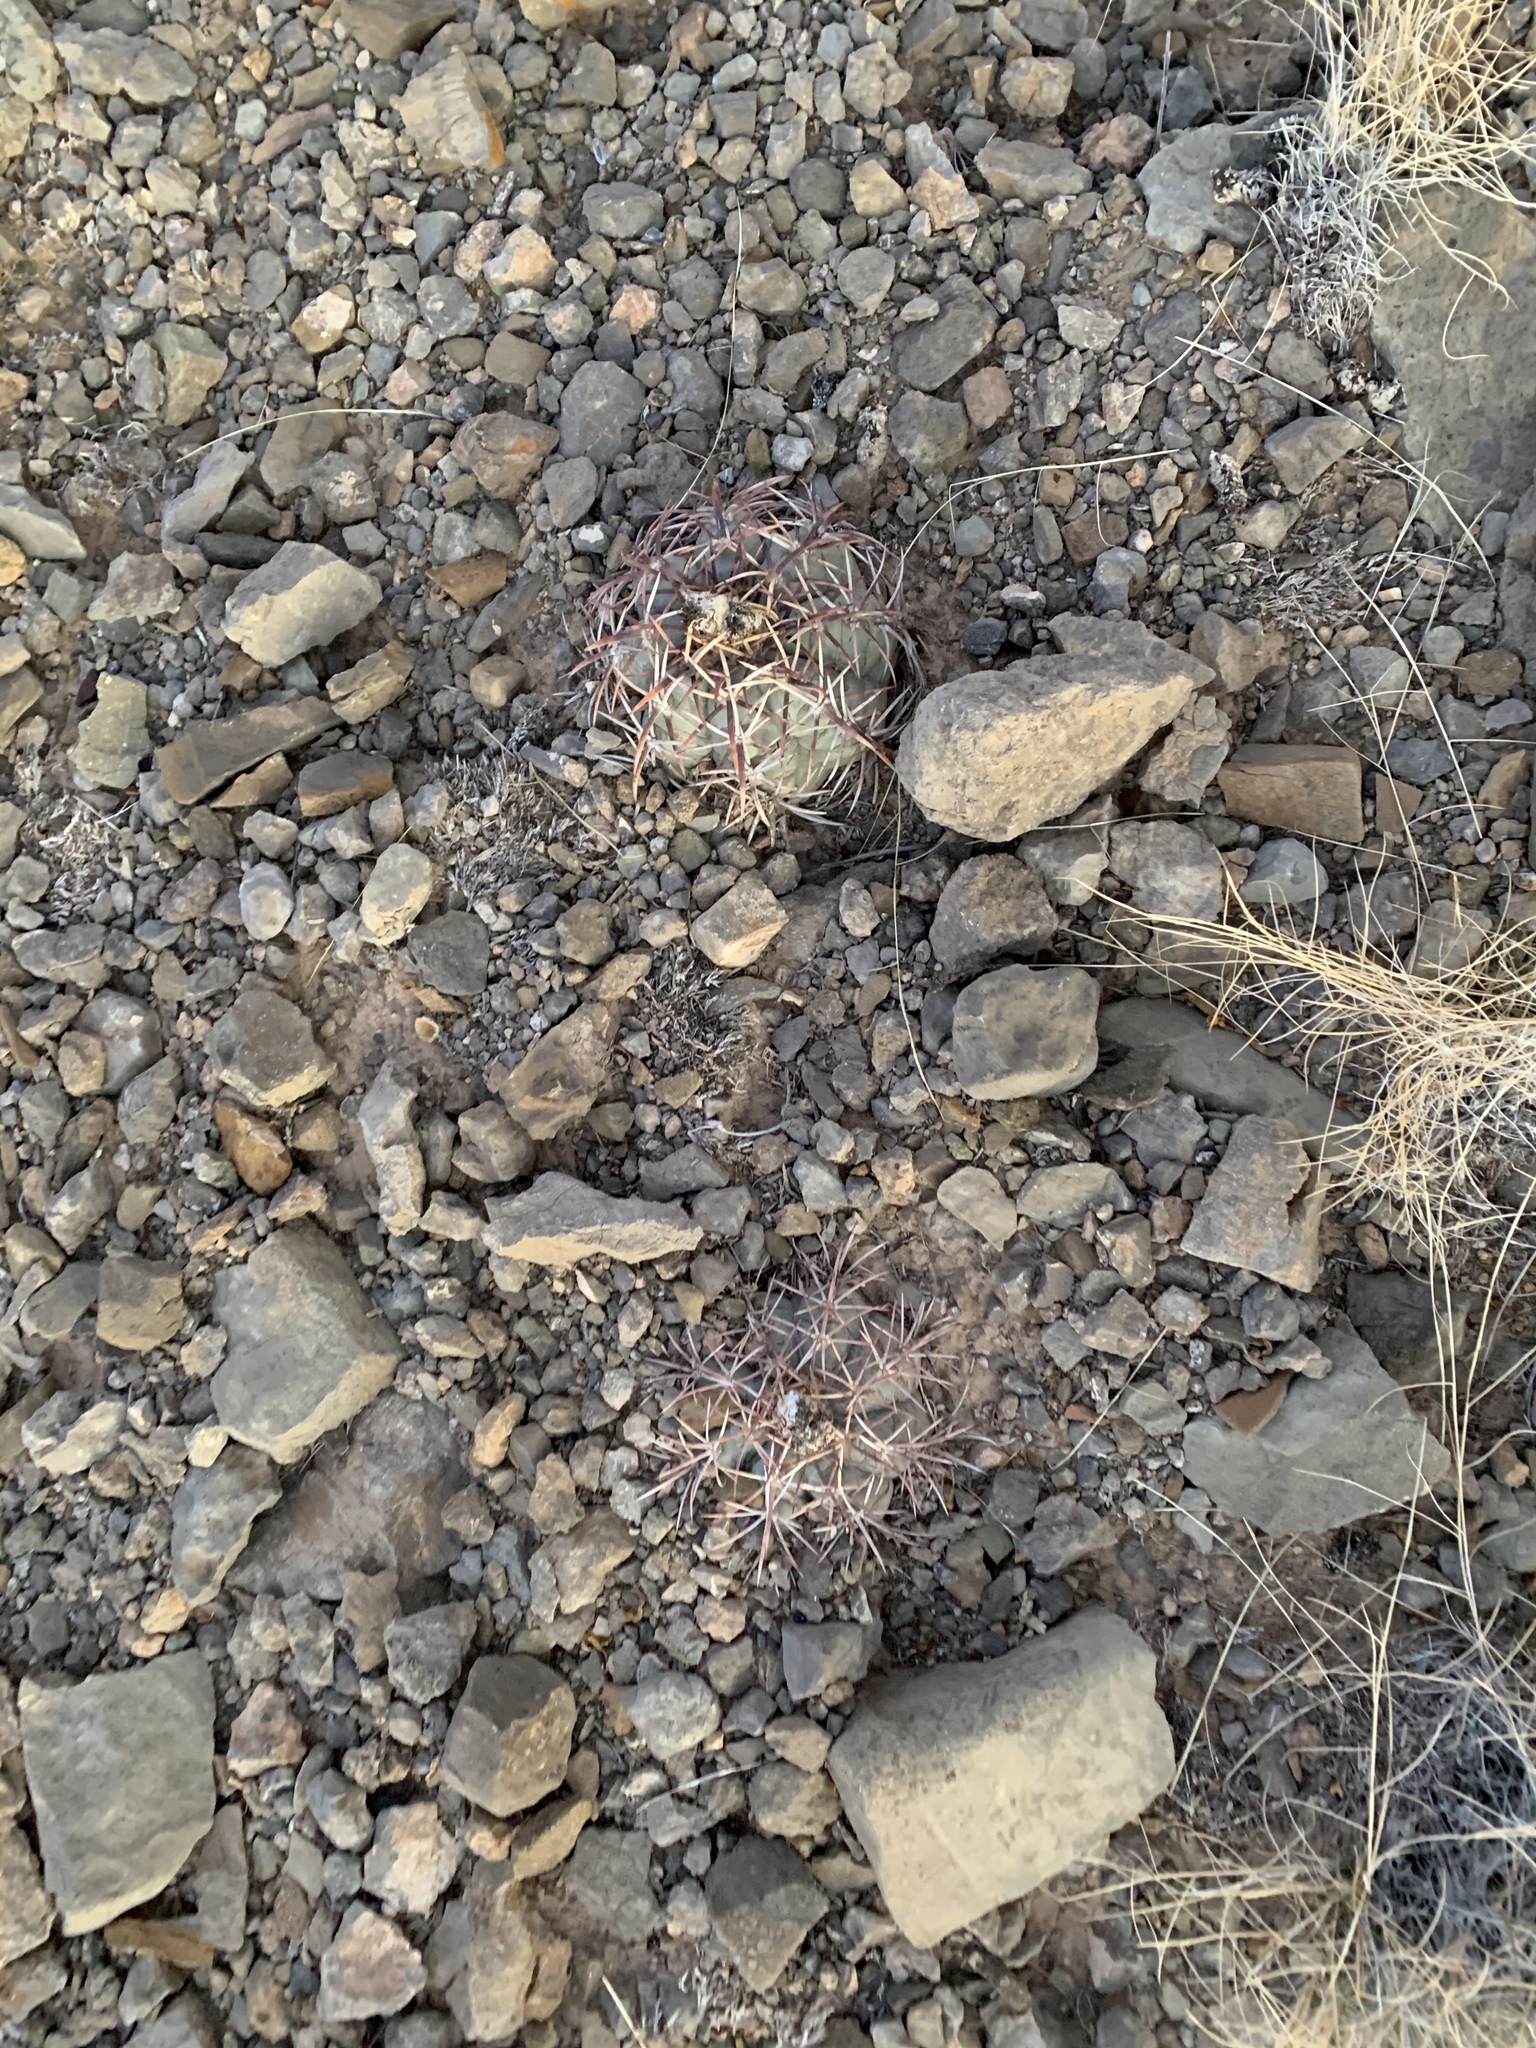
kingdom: Plantae
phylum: Tracheophyta
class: Magnoliopsida
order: Caryophyllales
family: Cactaceae
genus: Echinocactus
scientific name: Echinocactus horizonthalonius
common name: Devilshead
